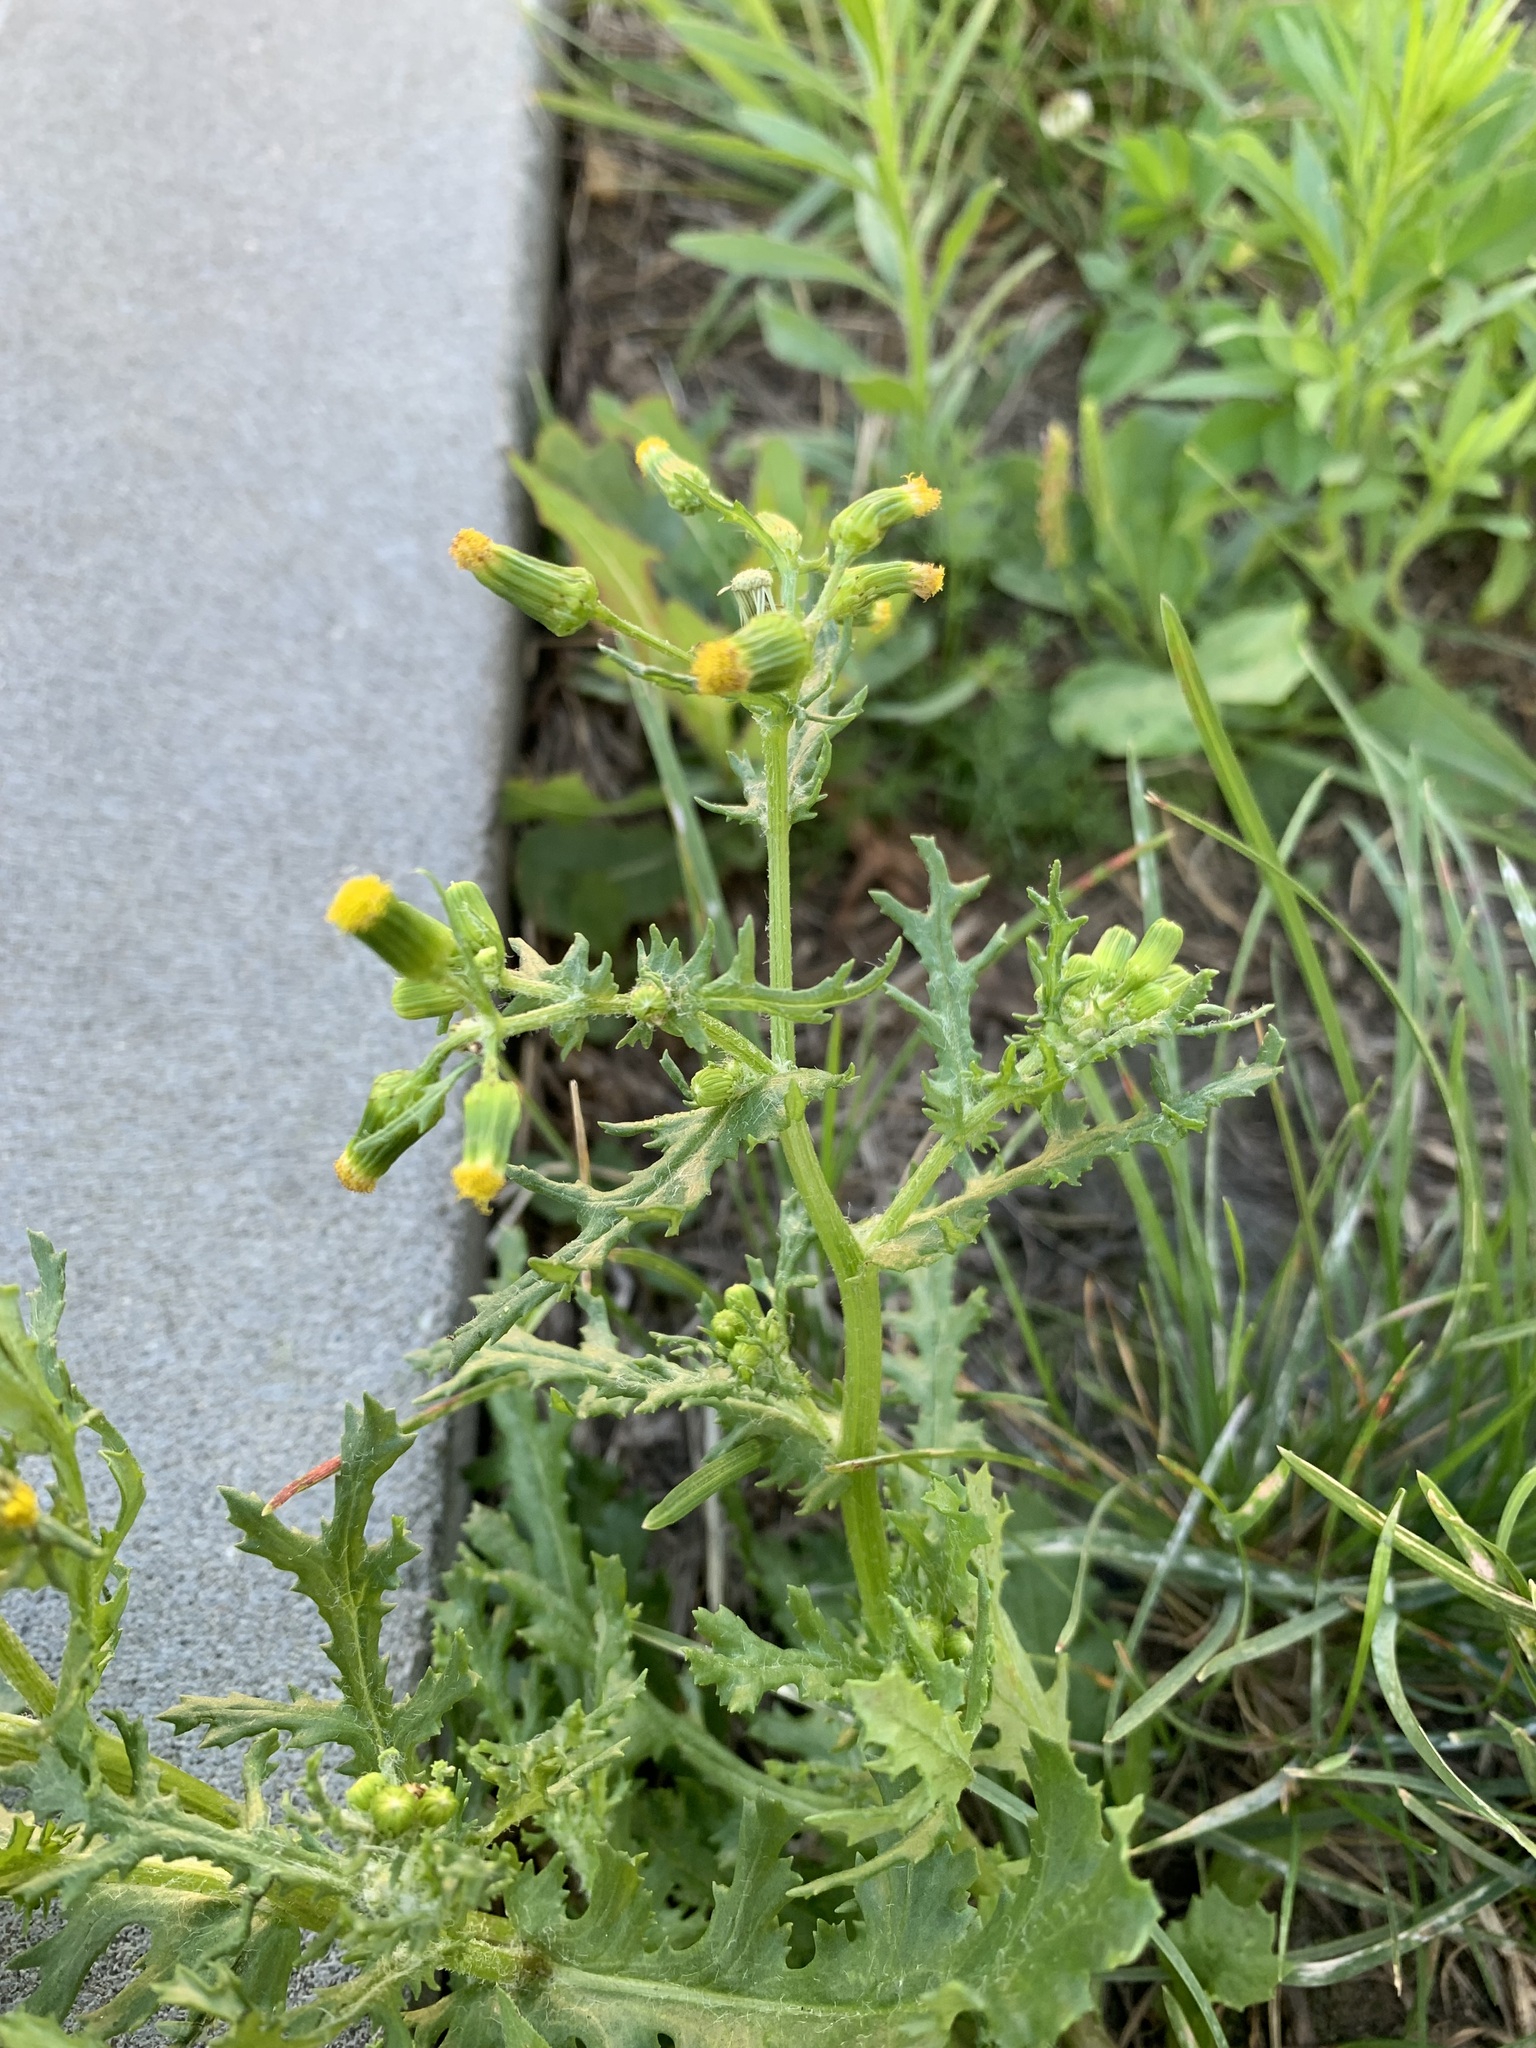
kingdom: Plantae
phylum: Tracheophyta
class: Magnoliopsida
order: Asterales
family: Asteraceae
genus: Senecio
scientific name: Senecio vulgaris
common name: Old-man-in-the-spring
